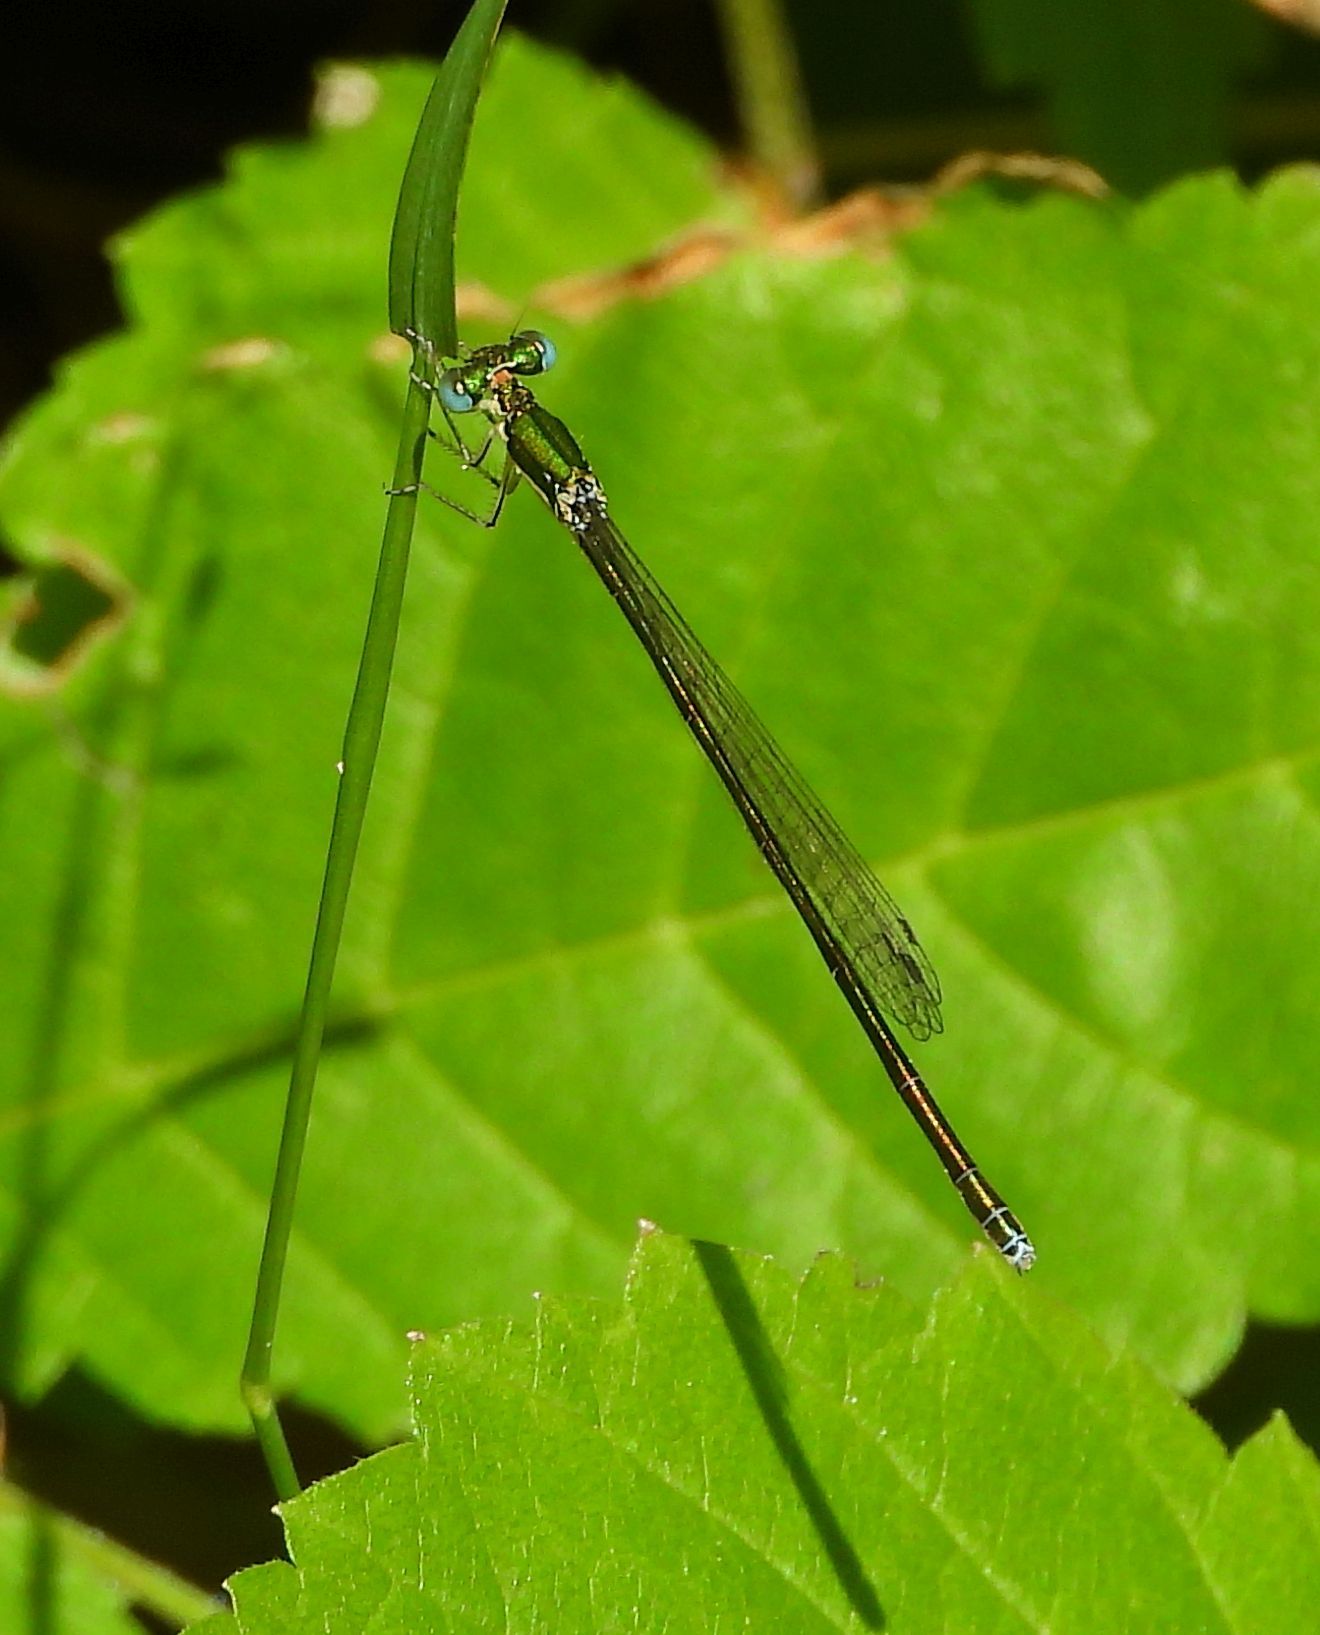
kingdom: Animalia
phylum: Arthropoda
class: Insecta
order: Odonata
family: Coenagrionidae
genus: Nehalennia
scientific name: Nehalennia irene
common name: Sedge sprite
